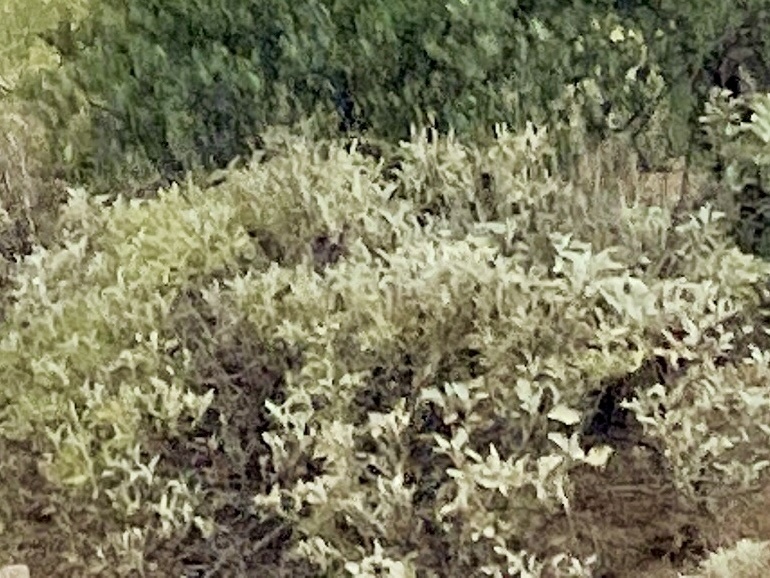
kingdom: Plantae
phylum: Tracheophyta
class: Magnoliopsida
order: Asterales
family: Asteraceae
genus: Ambrosia
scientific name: Ambrosia deltoidea
